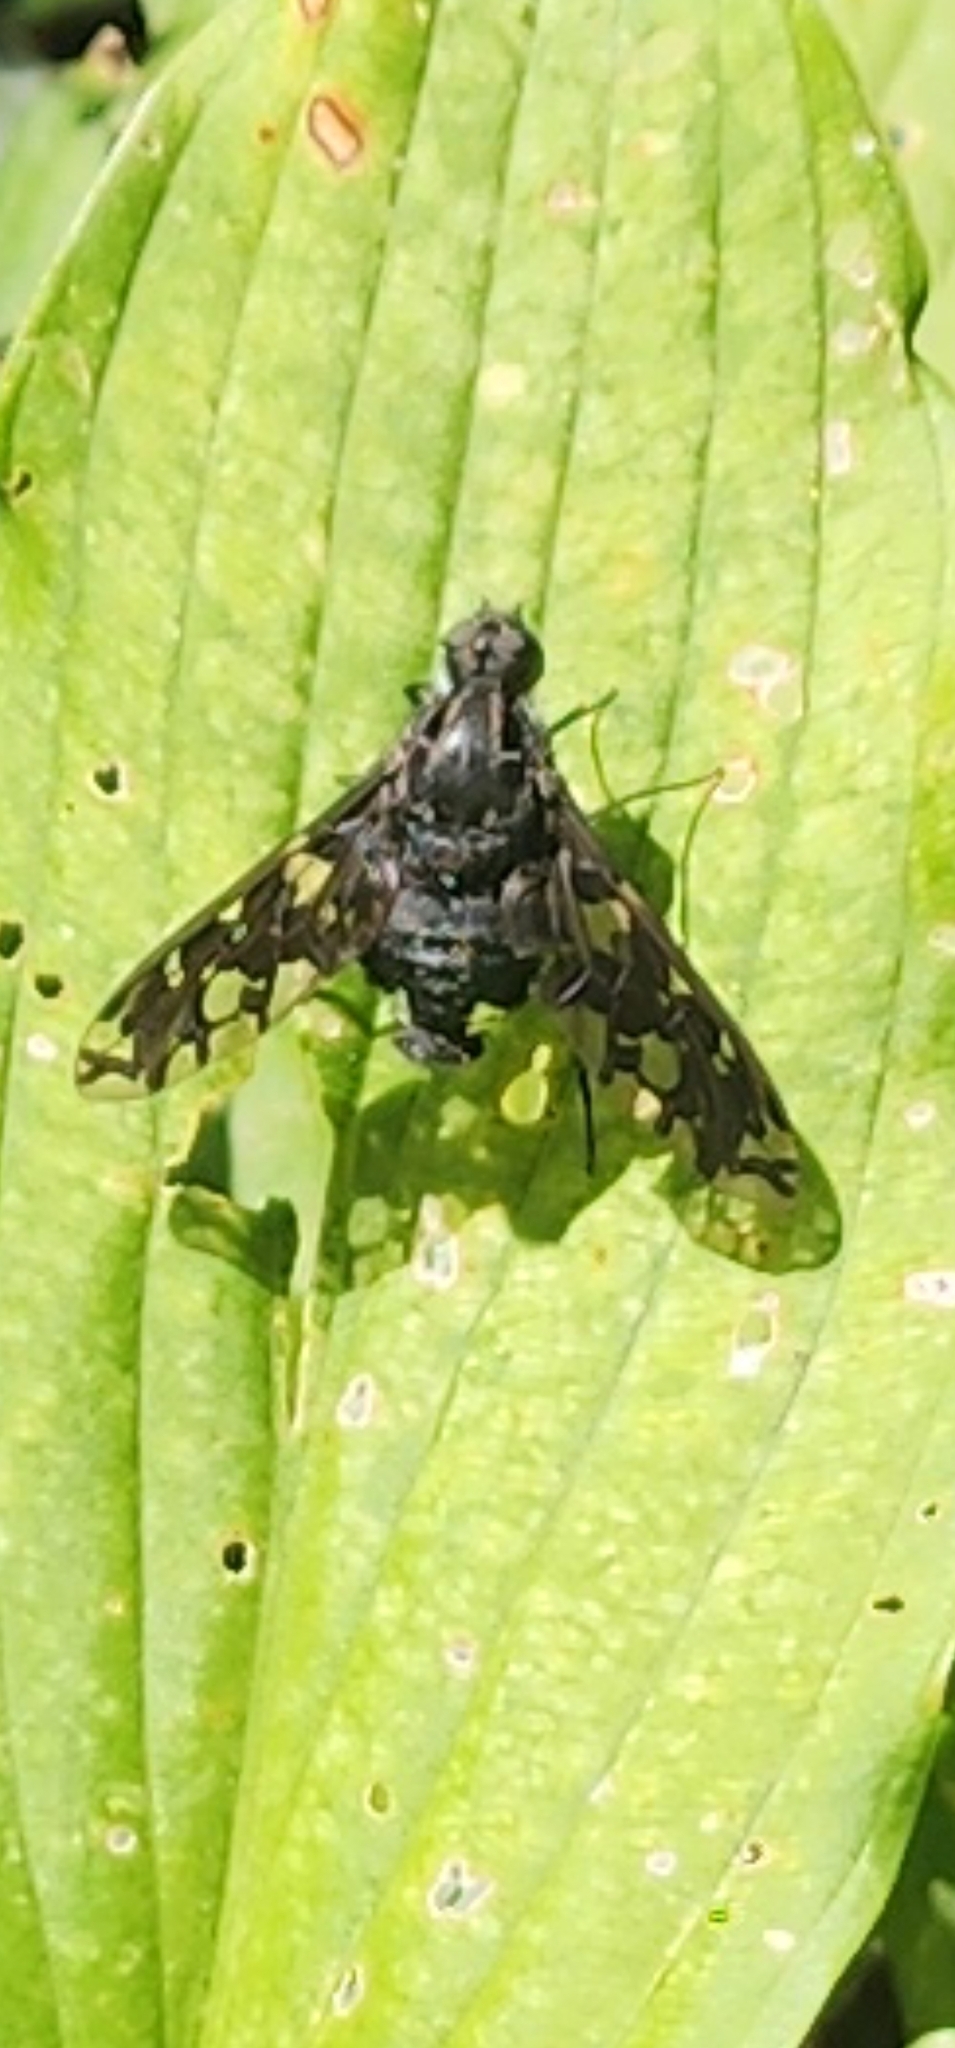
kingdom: Animalia
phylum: Arthropoda
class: Insecta
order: Diptera
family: Bombyliidae
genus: Xenox
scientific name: Xenox tigrinus
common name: Tiger bee fly
